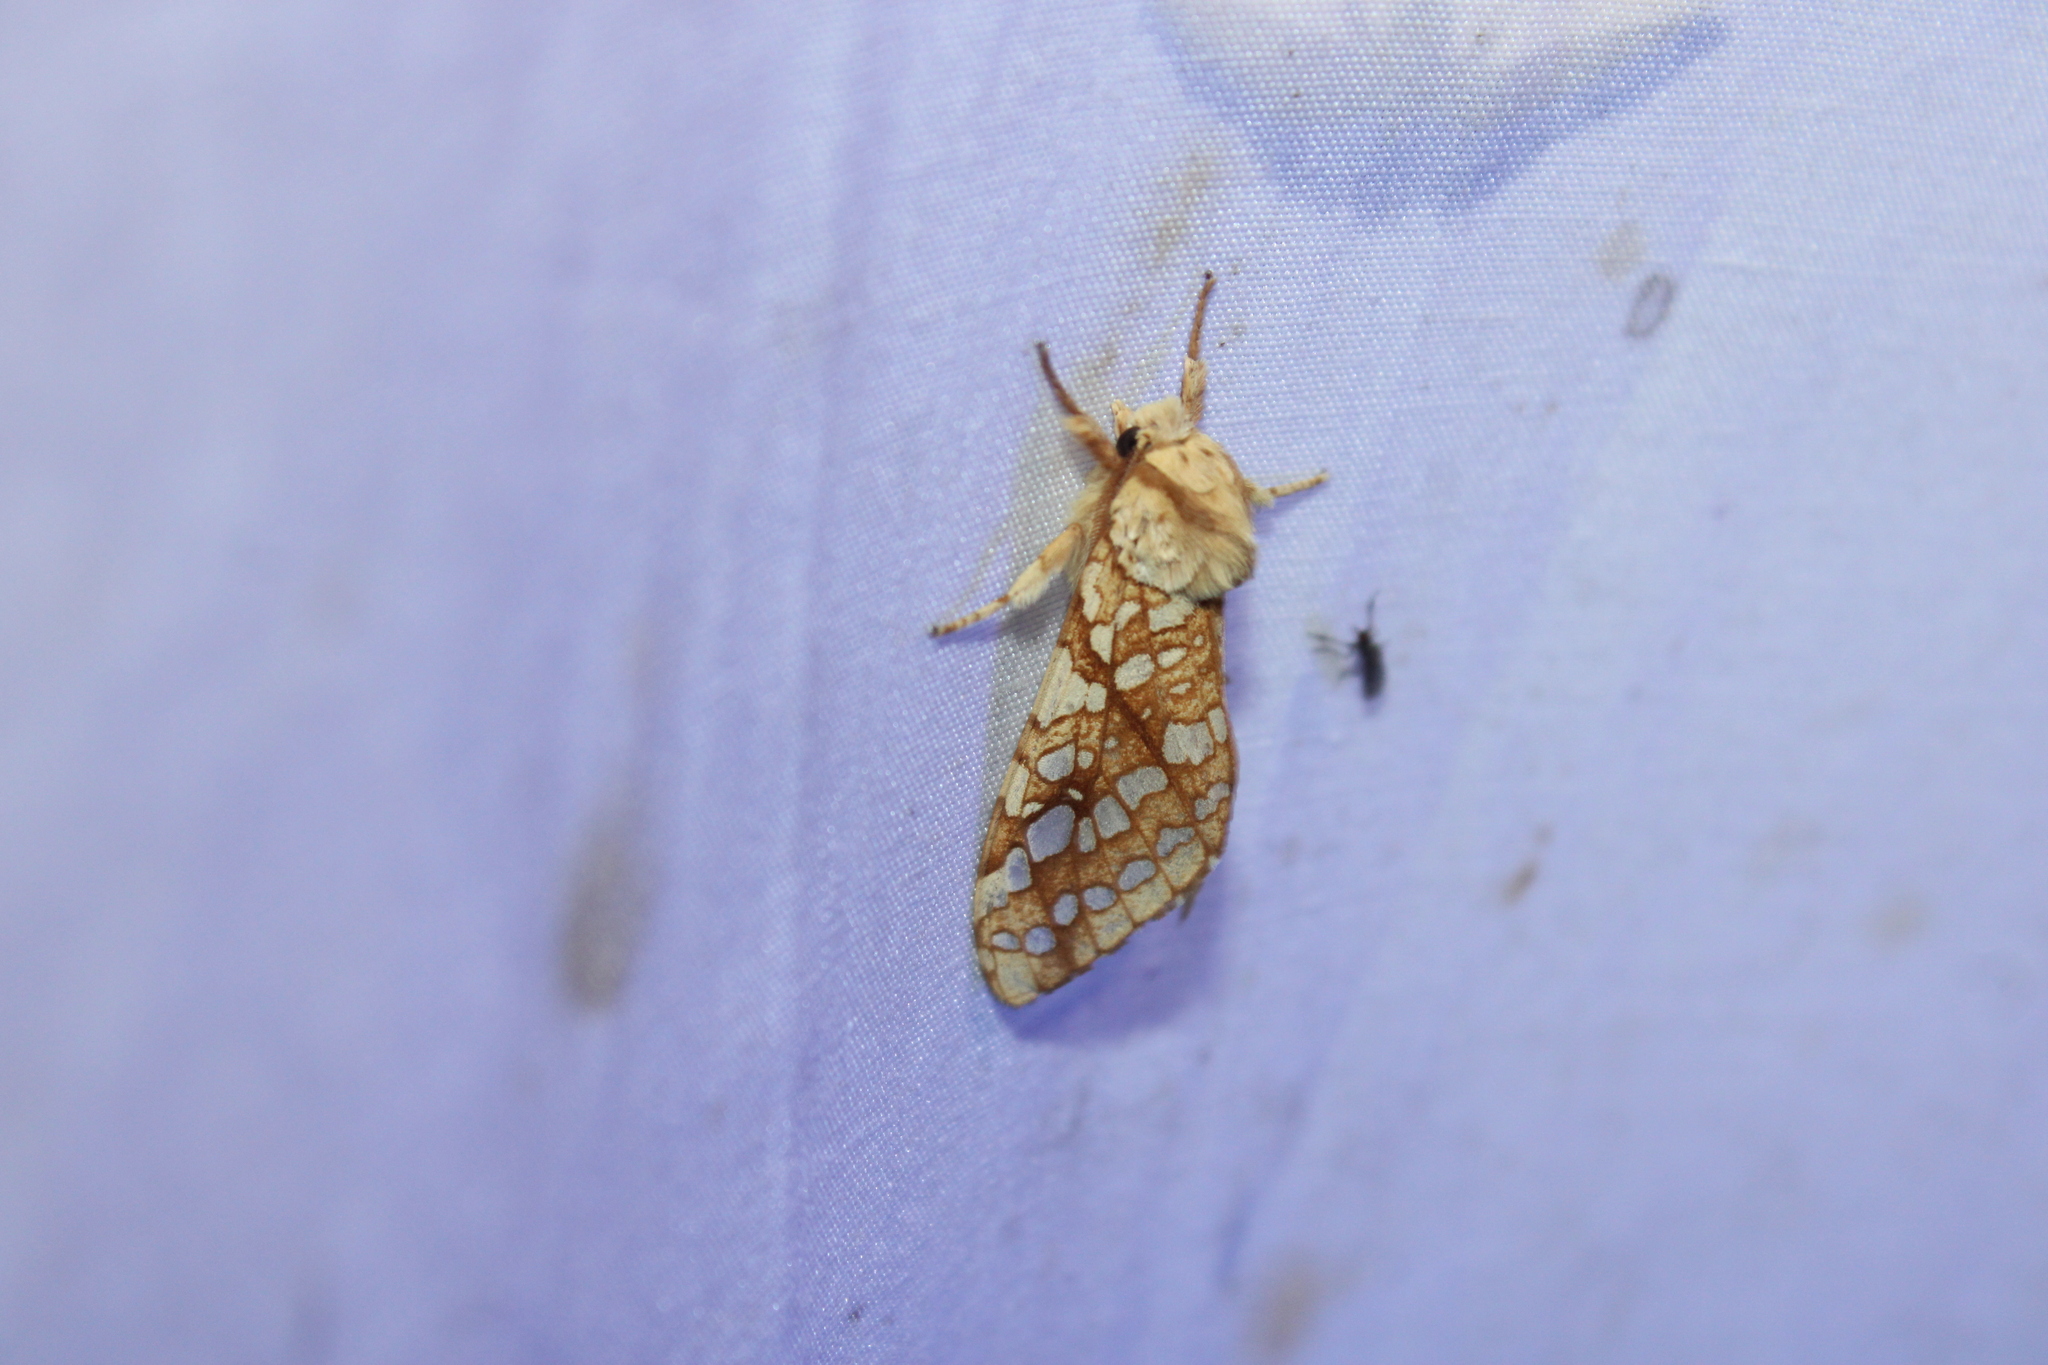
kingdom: Animalia
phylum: Arthropoda
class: Insecta
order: Lepidoptera
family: Erebidae
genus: Lophocampa
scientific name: Lophocampa caryae
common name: Hickory tussock moth
